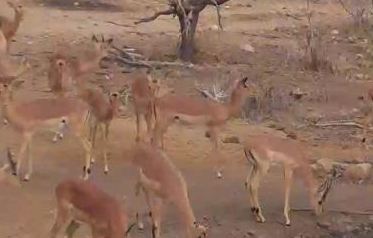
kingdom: Animalia
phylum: Chordata
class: Mammalia
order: Artiodactyla
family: Bovidae
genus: Aepyceros
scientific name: Aepyceros melampus
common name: Impala
